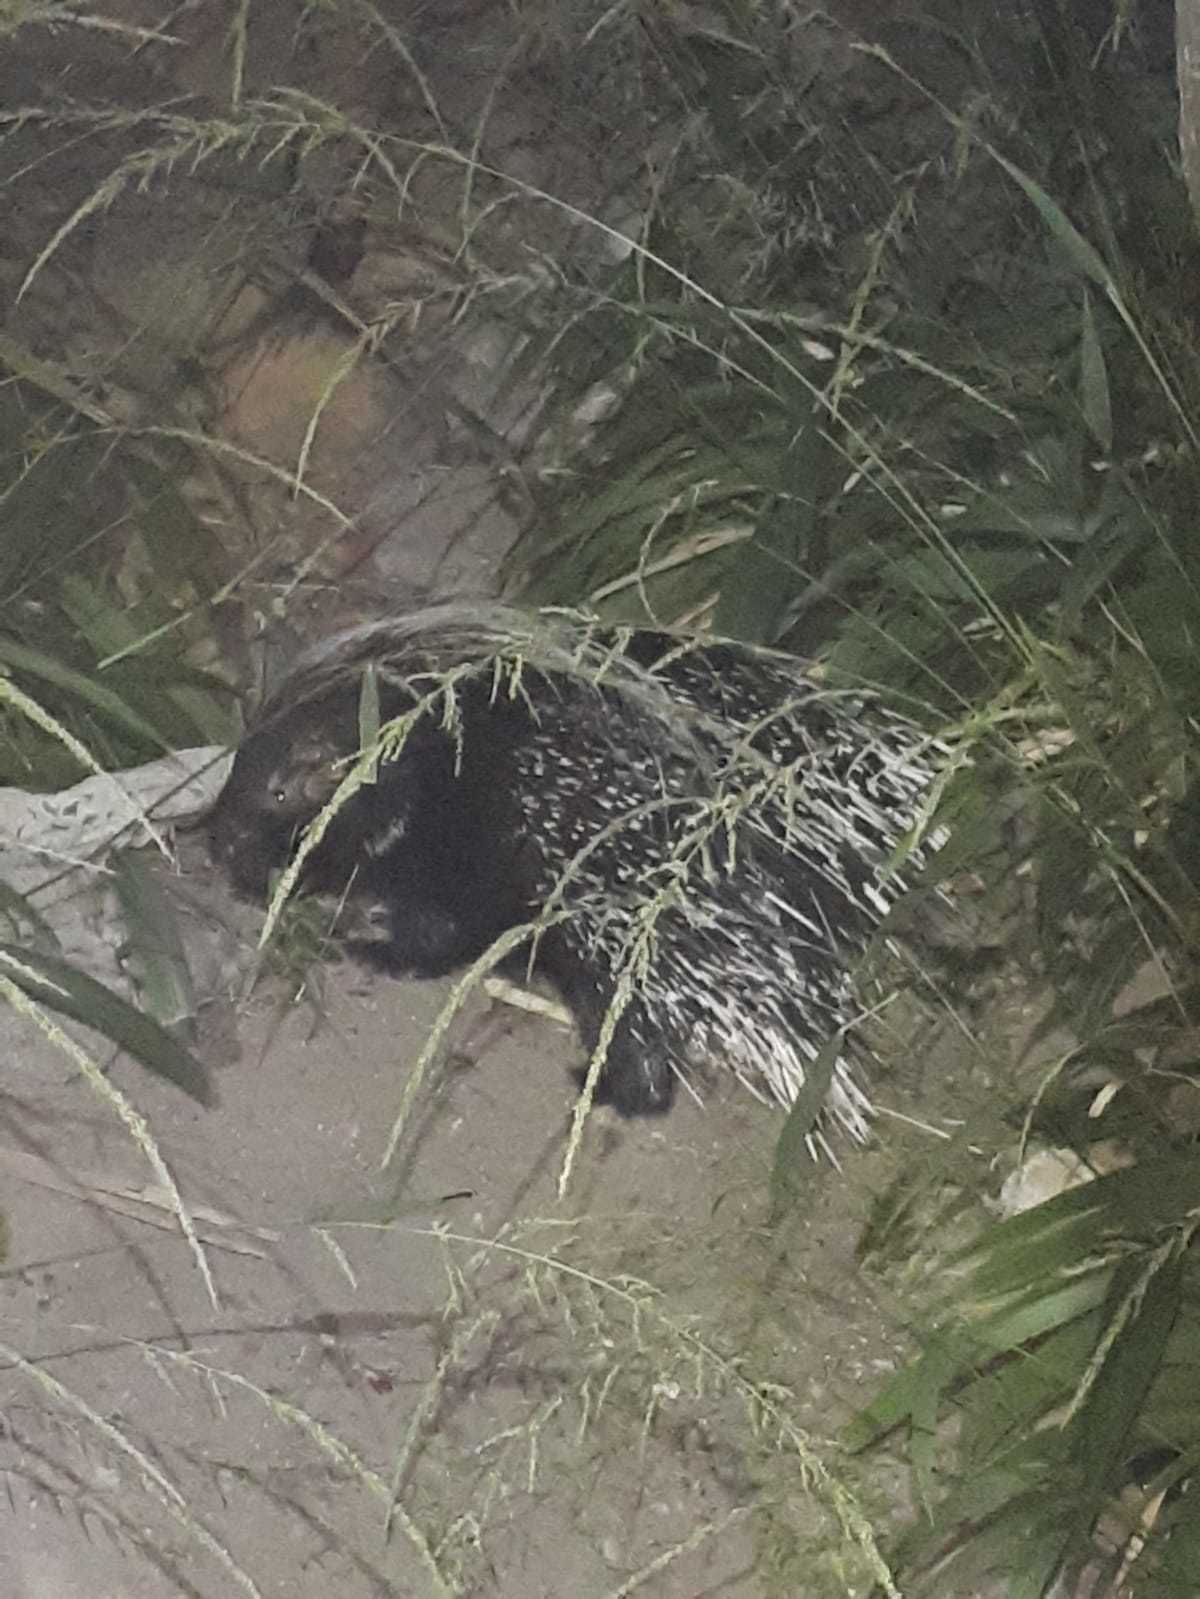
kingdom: Animalia
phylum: Chordata
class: Mammalia
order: Rodentia
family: Hystricidae
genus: Hystrix
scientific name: Hystrix africaeaustralis
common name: Cape porcupine
